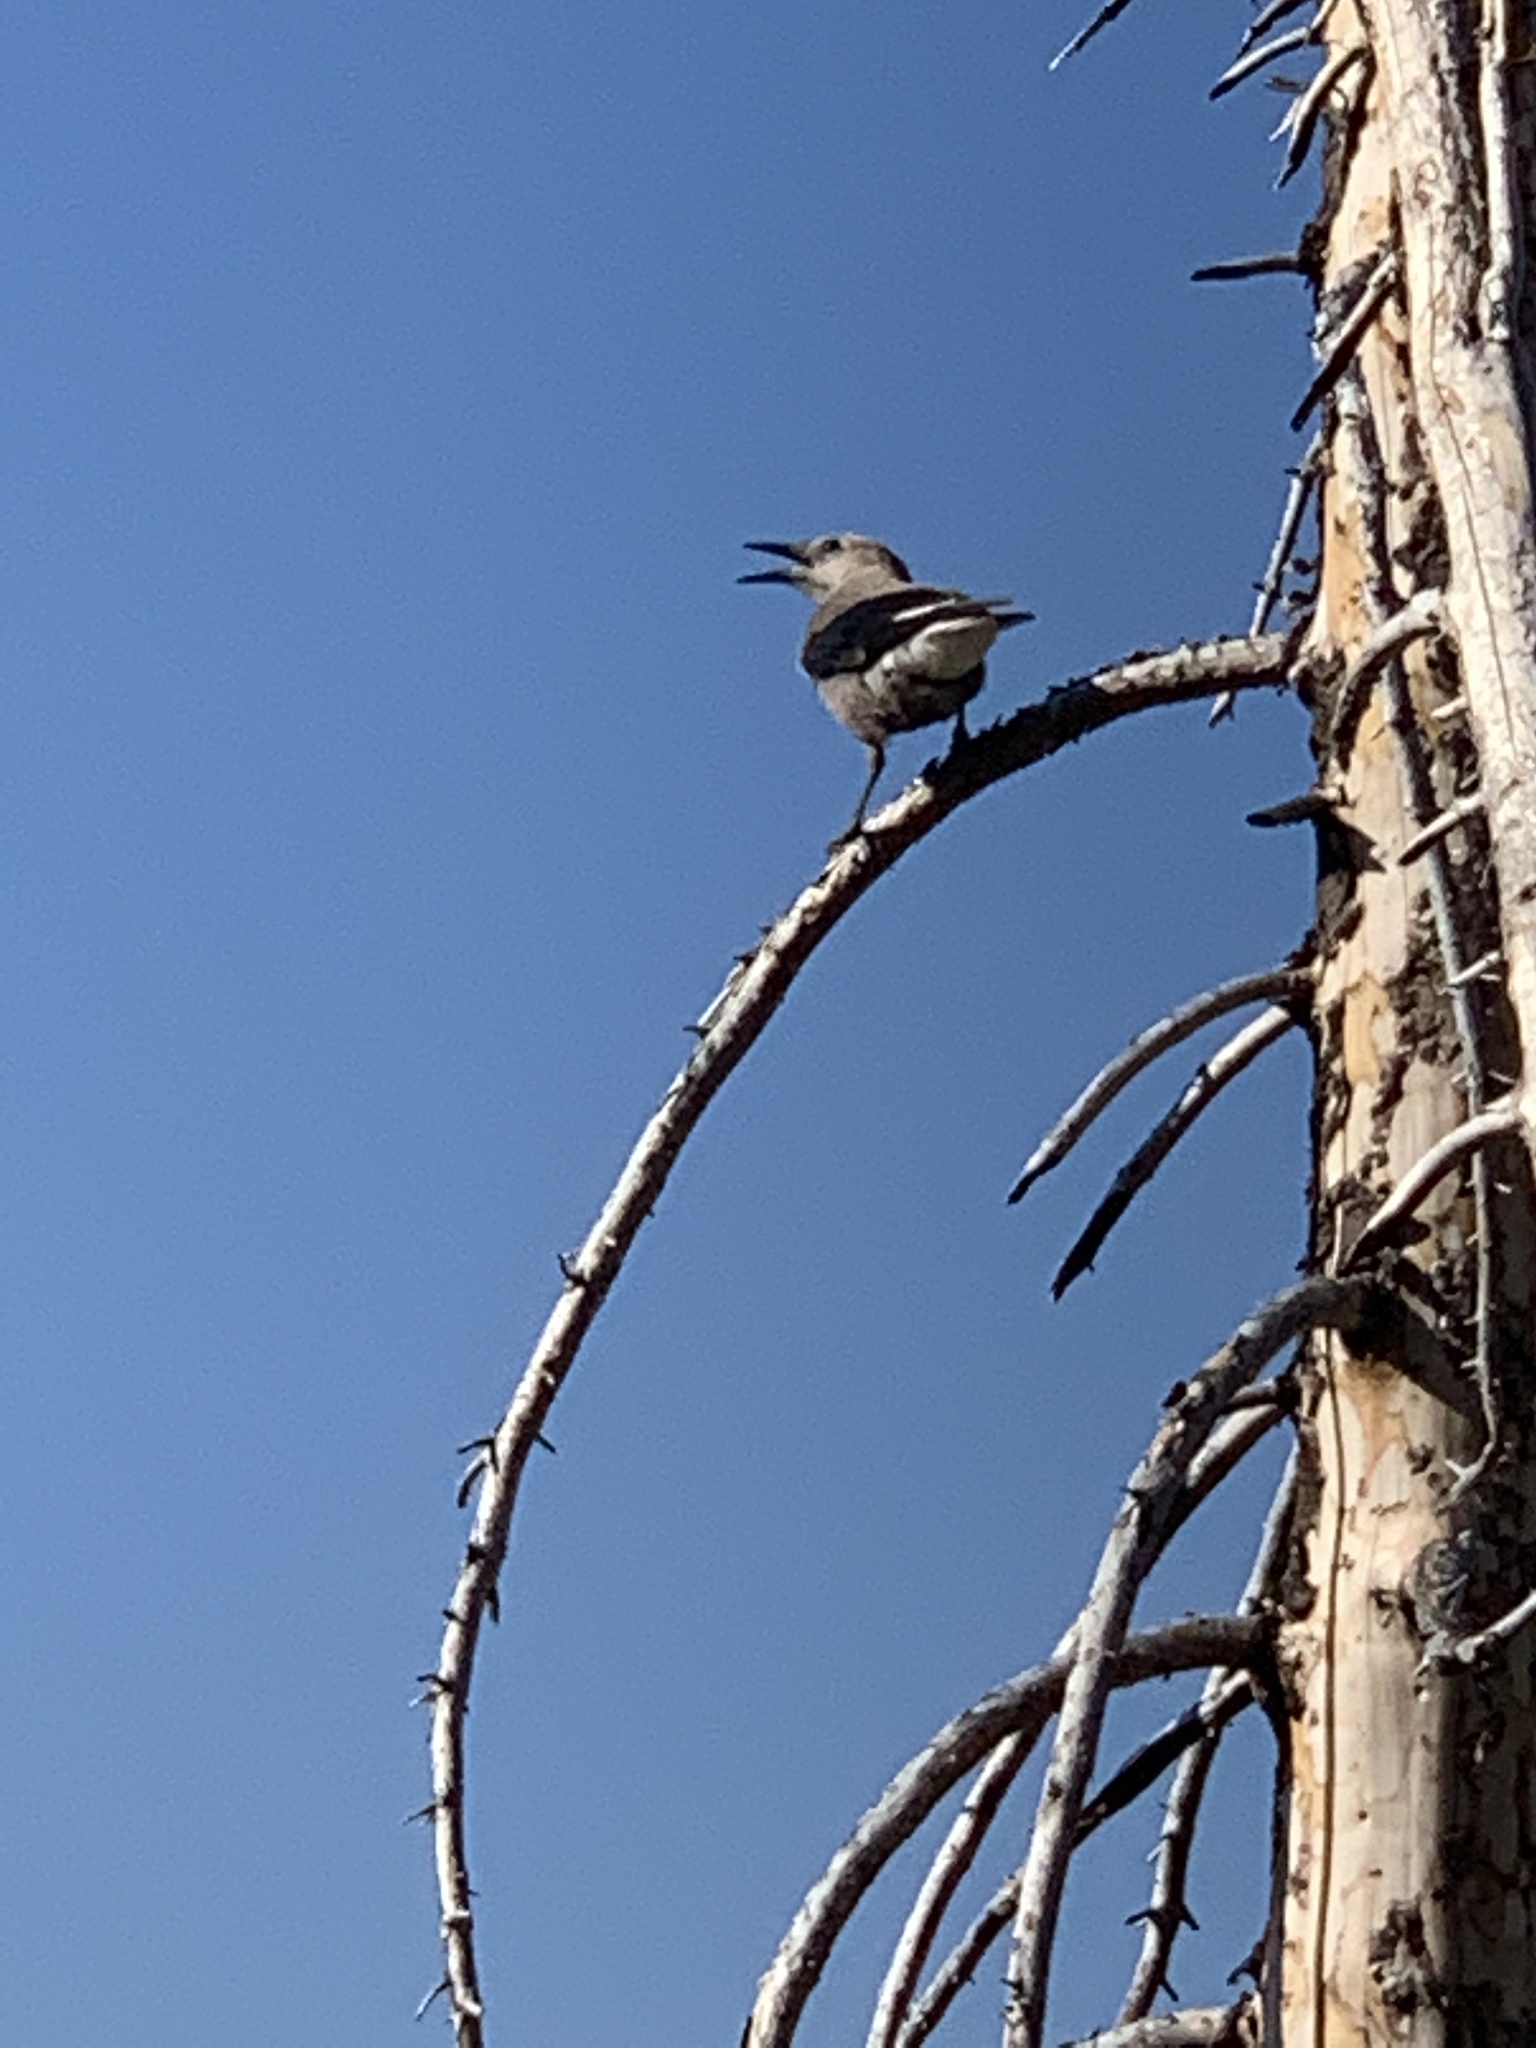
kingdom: Animalia
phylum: Chordata
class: Aves
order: Passeriformes
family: Corvidae
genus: Nucifraga
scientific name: Nucifraga columbiana
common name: Clark's nutcracker
